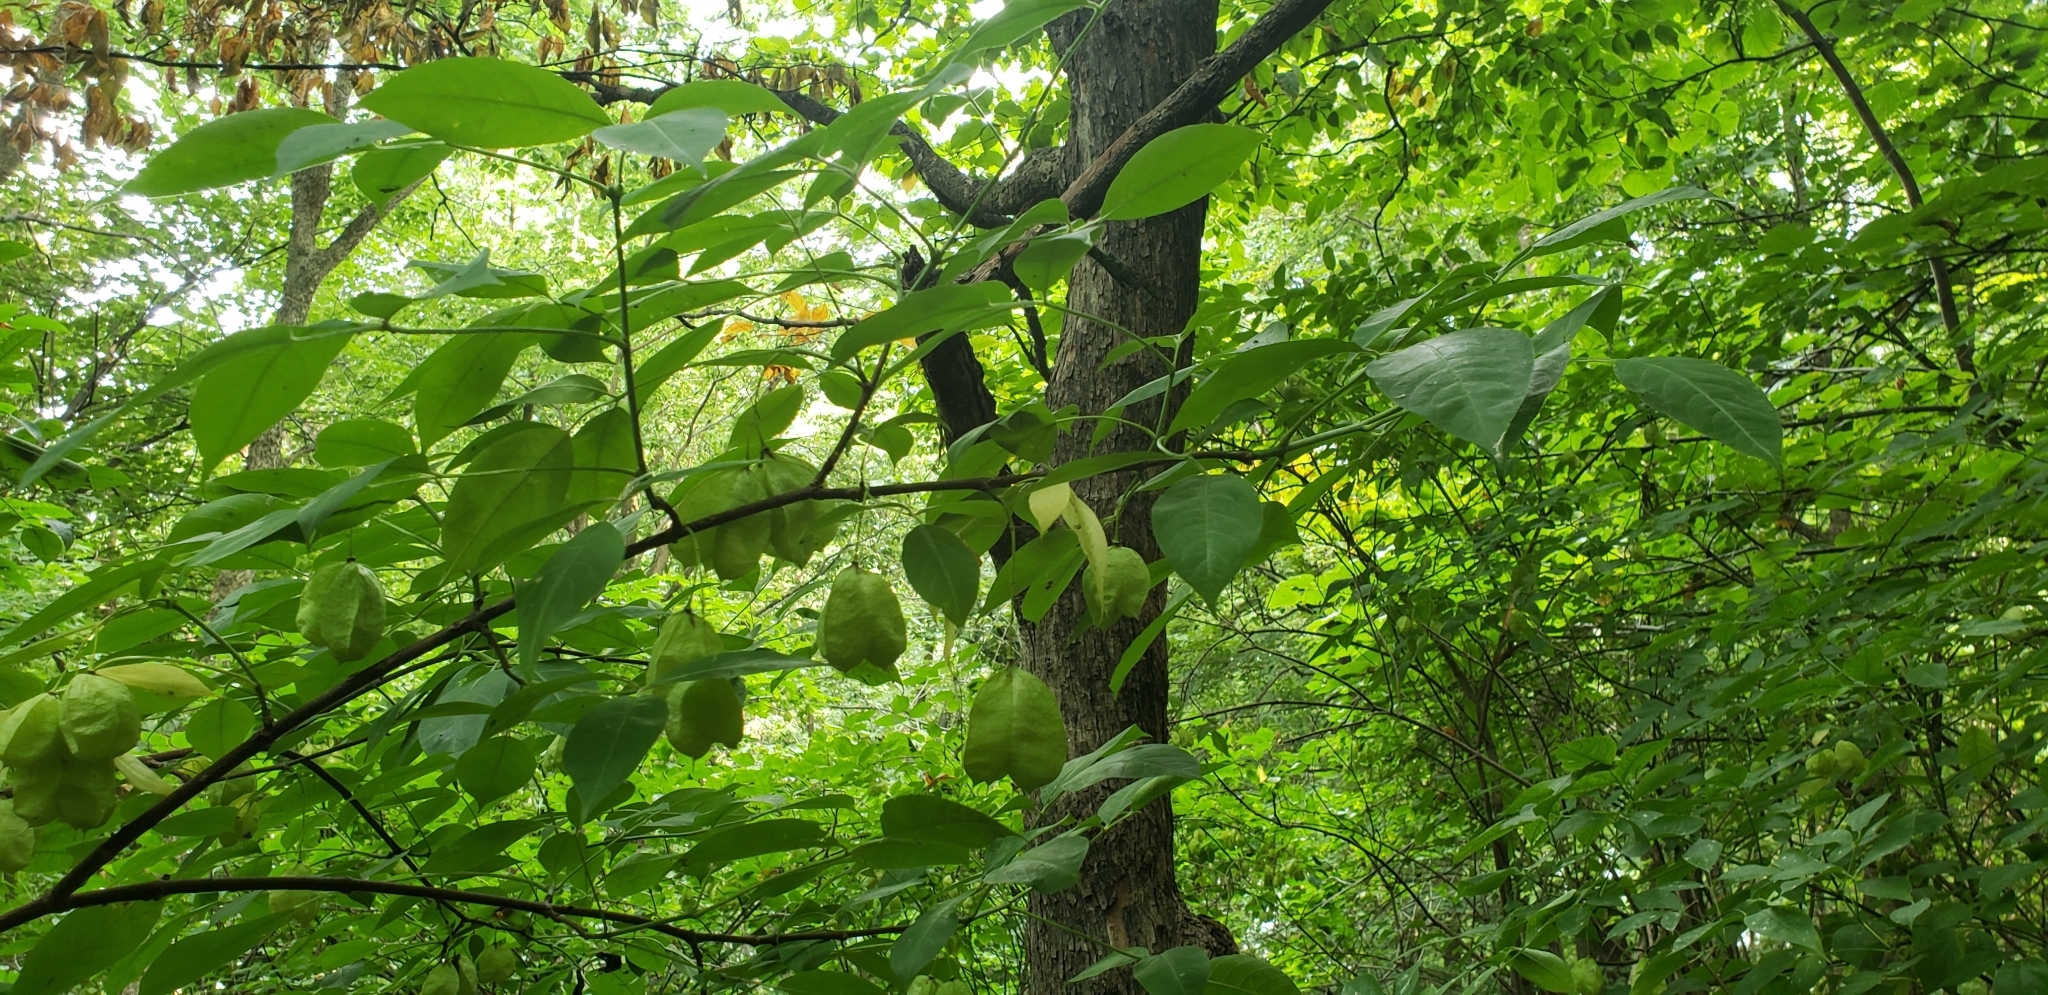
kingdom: Plantae
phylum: Tracheophyta
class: Magnoliopsida
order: Crossosomatales
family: Staphyleaceae
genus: Staphylea
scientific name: Staphylea trifolia
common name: American bladdernut
